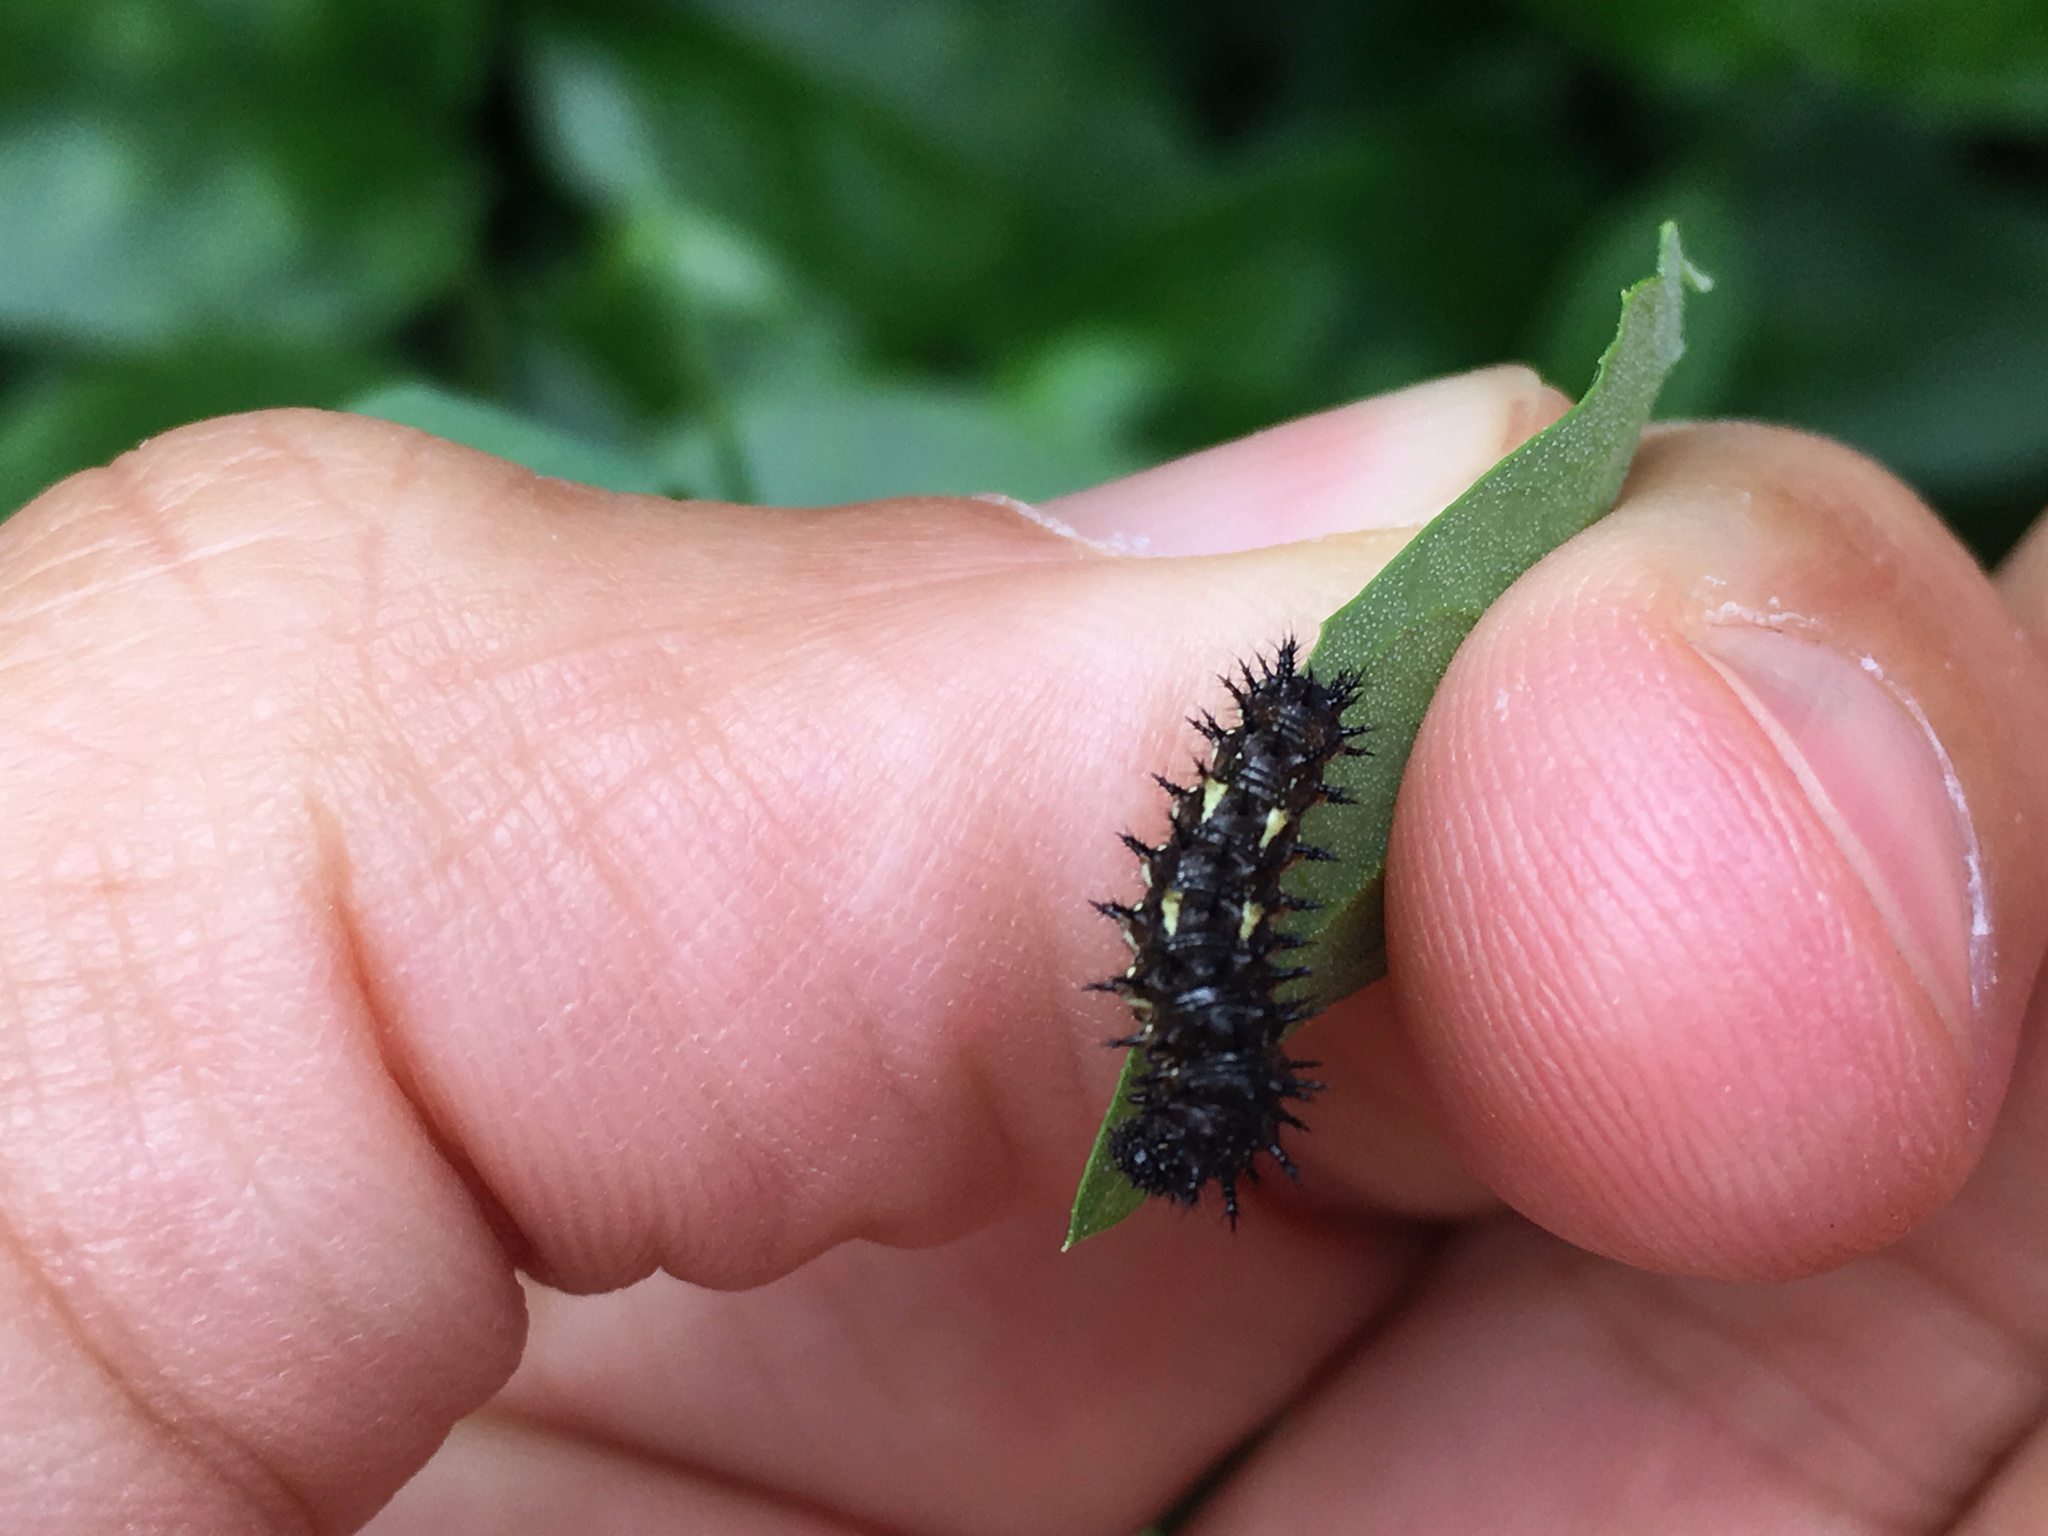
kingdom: Animalia
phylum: Arthropoda
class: Insecta
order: Lepidoptera
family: Nymphalidae
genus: Vanessa
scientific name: Vanessa itea
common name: Yellow admiral
